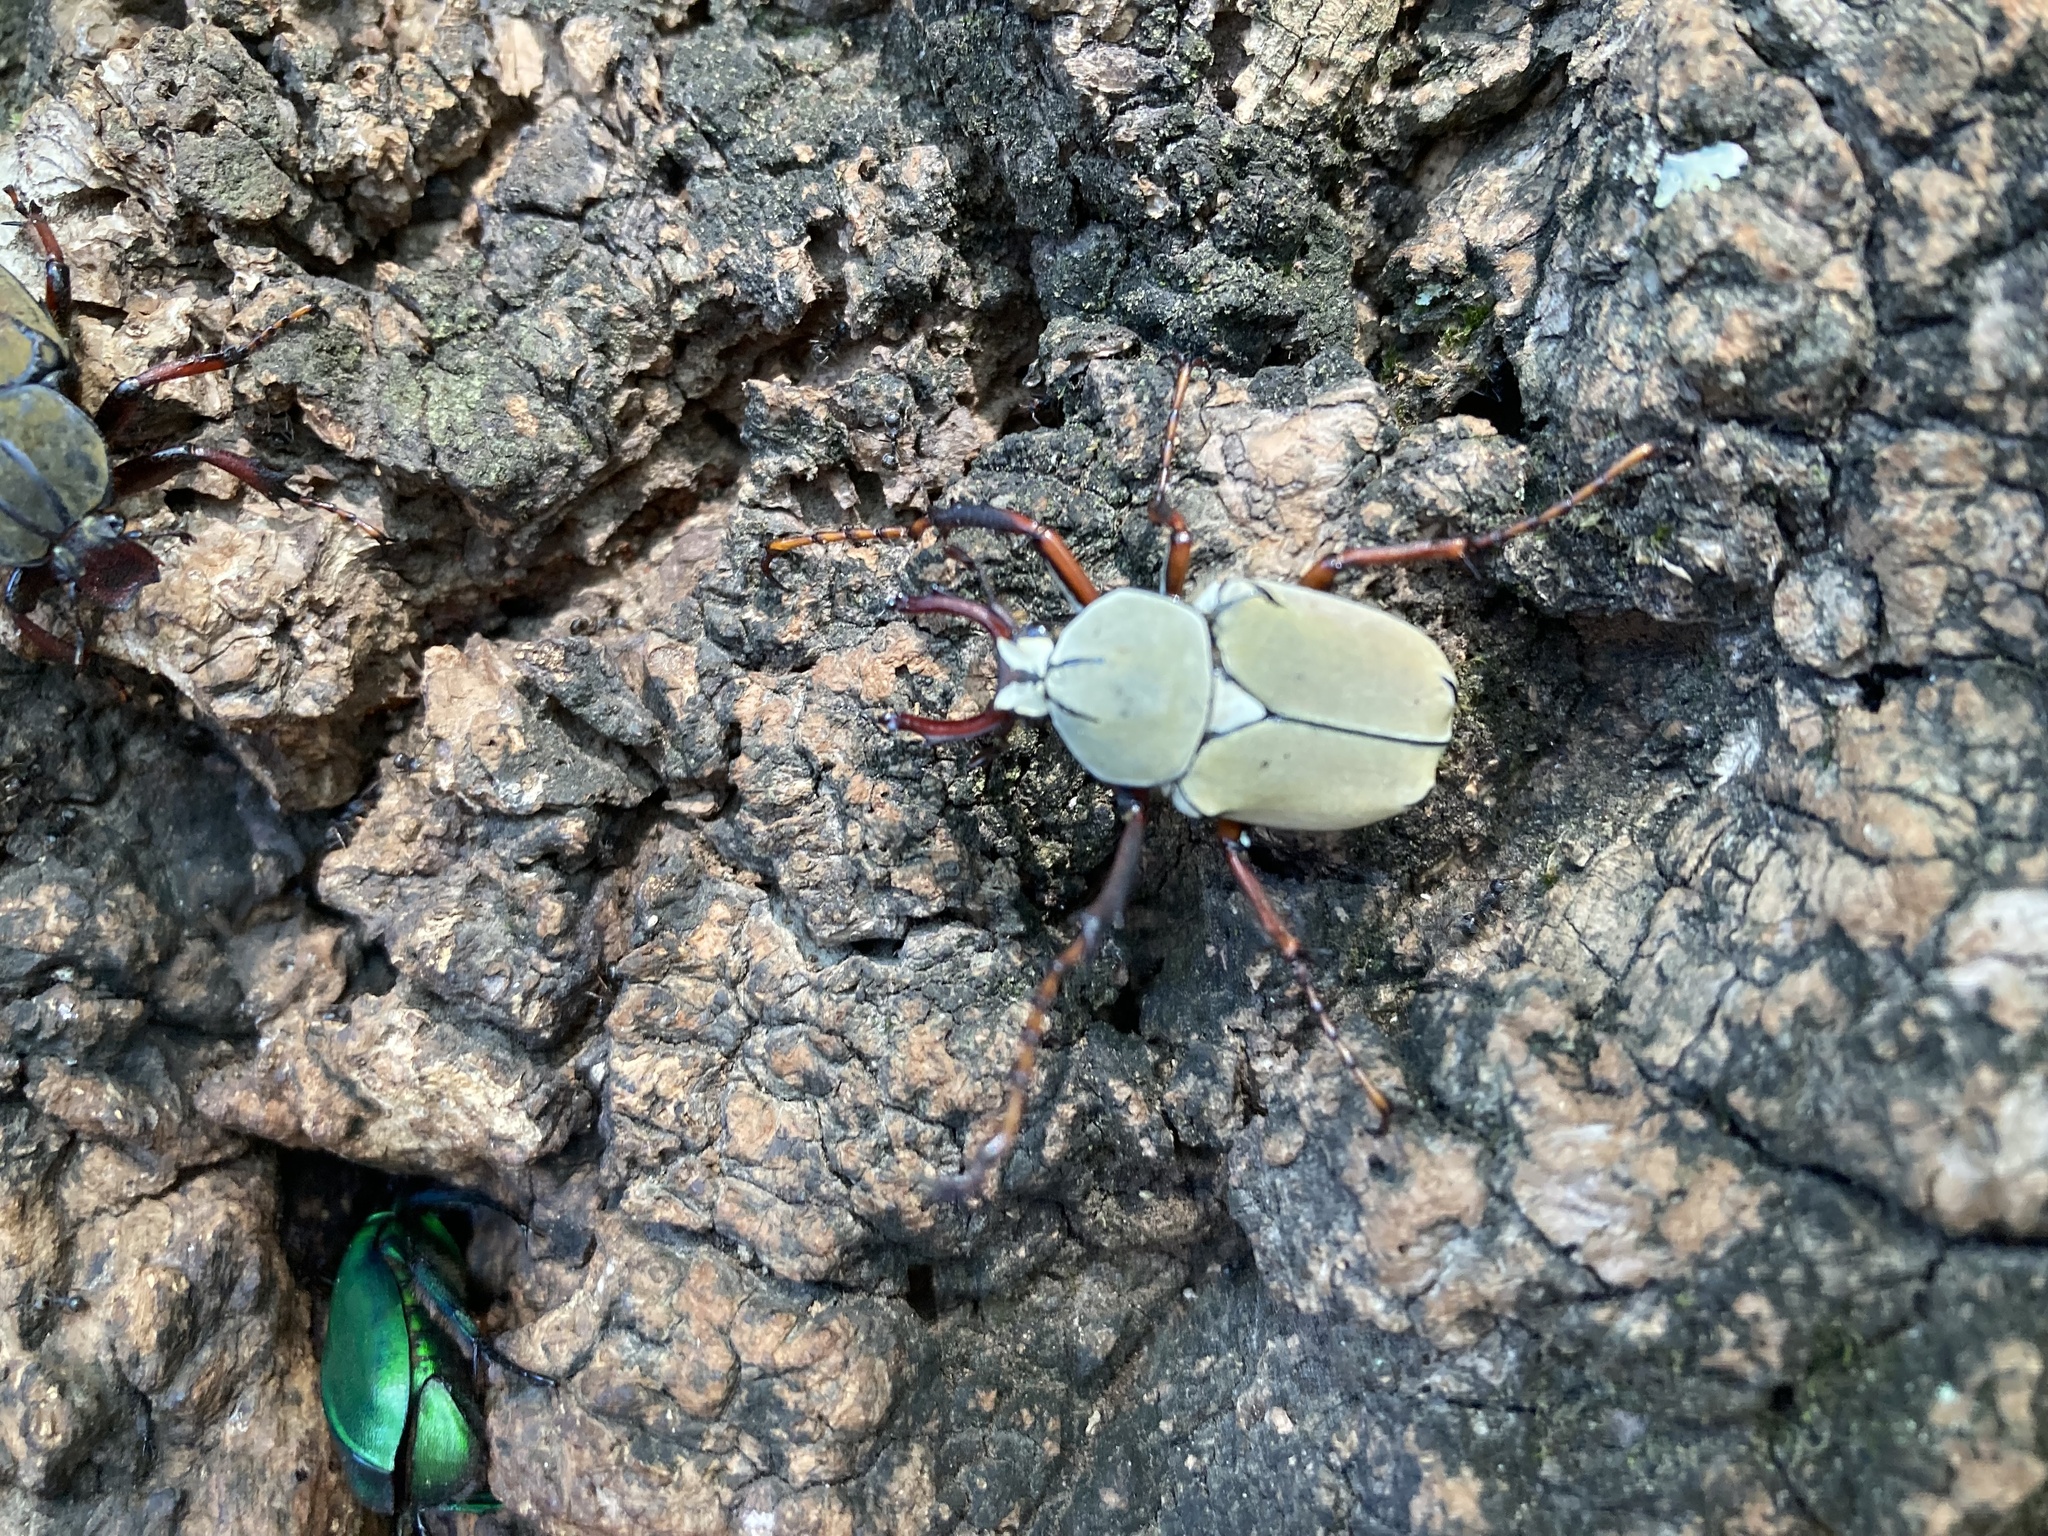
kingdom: Animalia
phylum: Arthropoda
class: Insecta
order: Coleoptera
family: Scarabaeidae
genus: Dicronocephalus
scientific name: Dicronocephalus bourgoini
